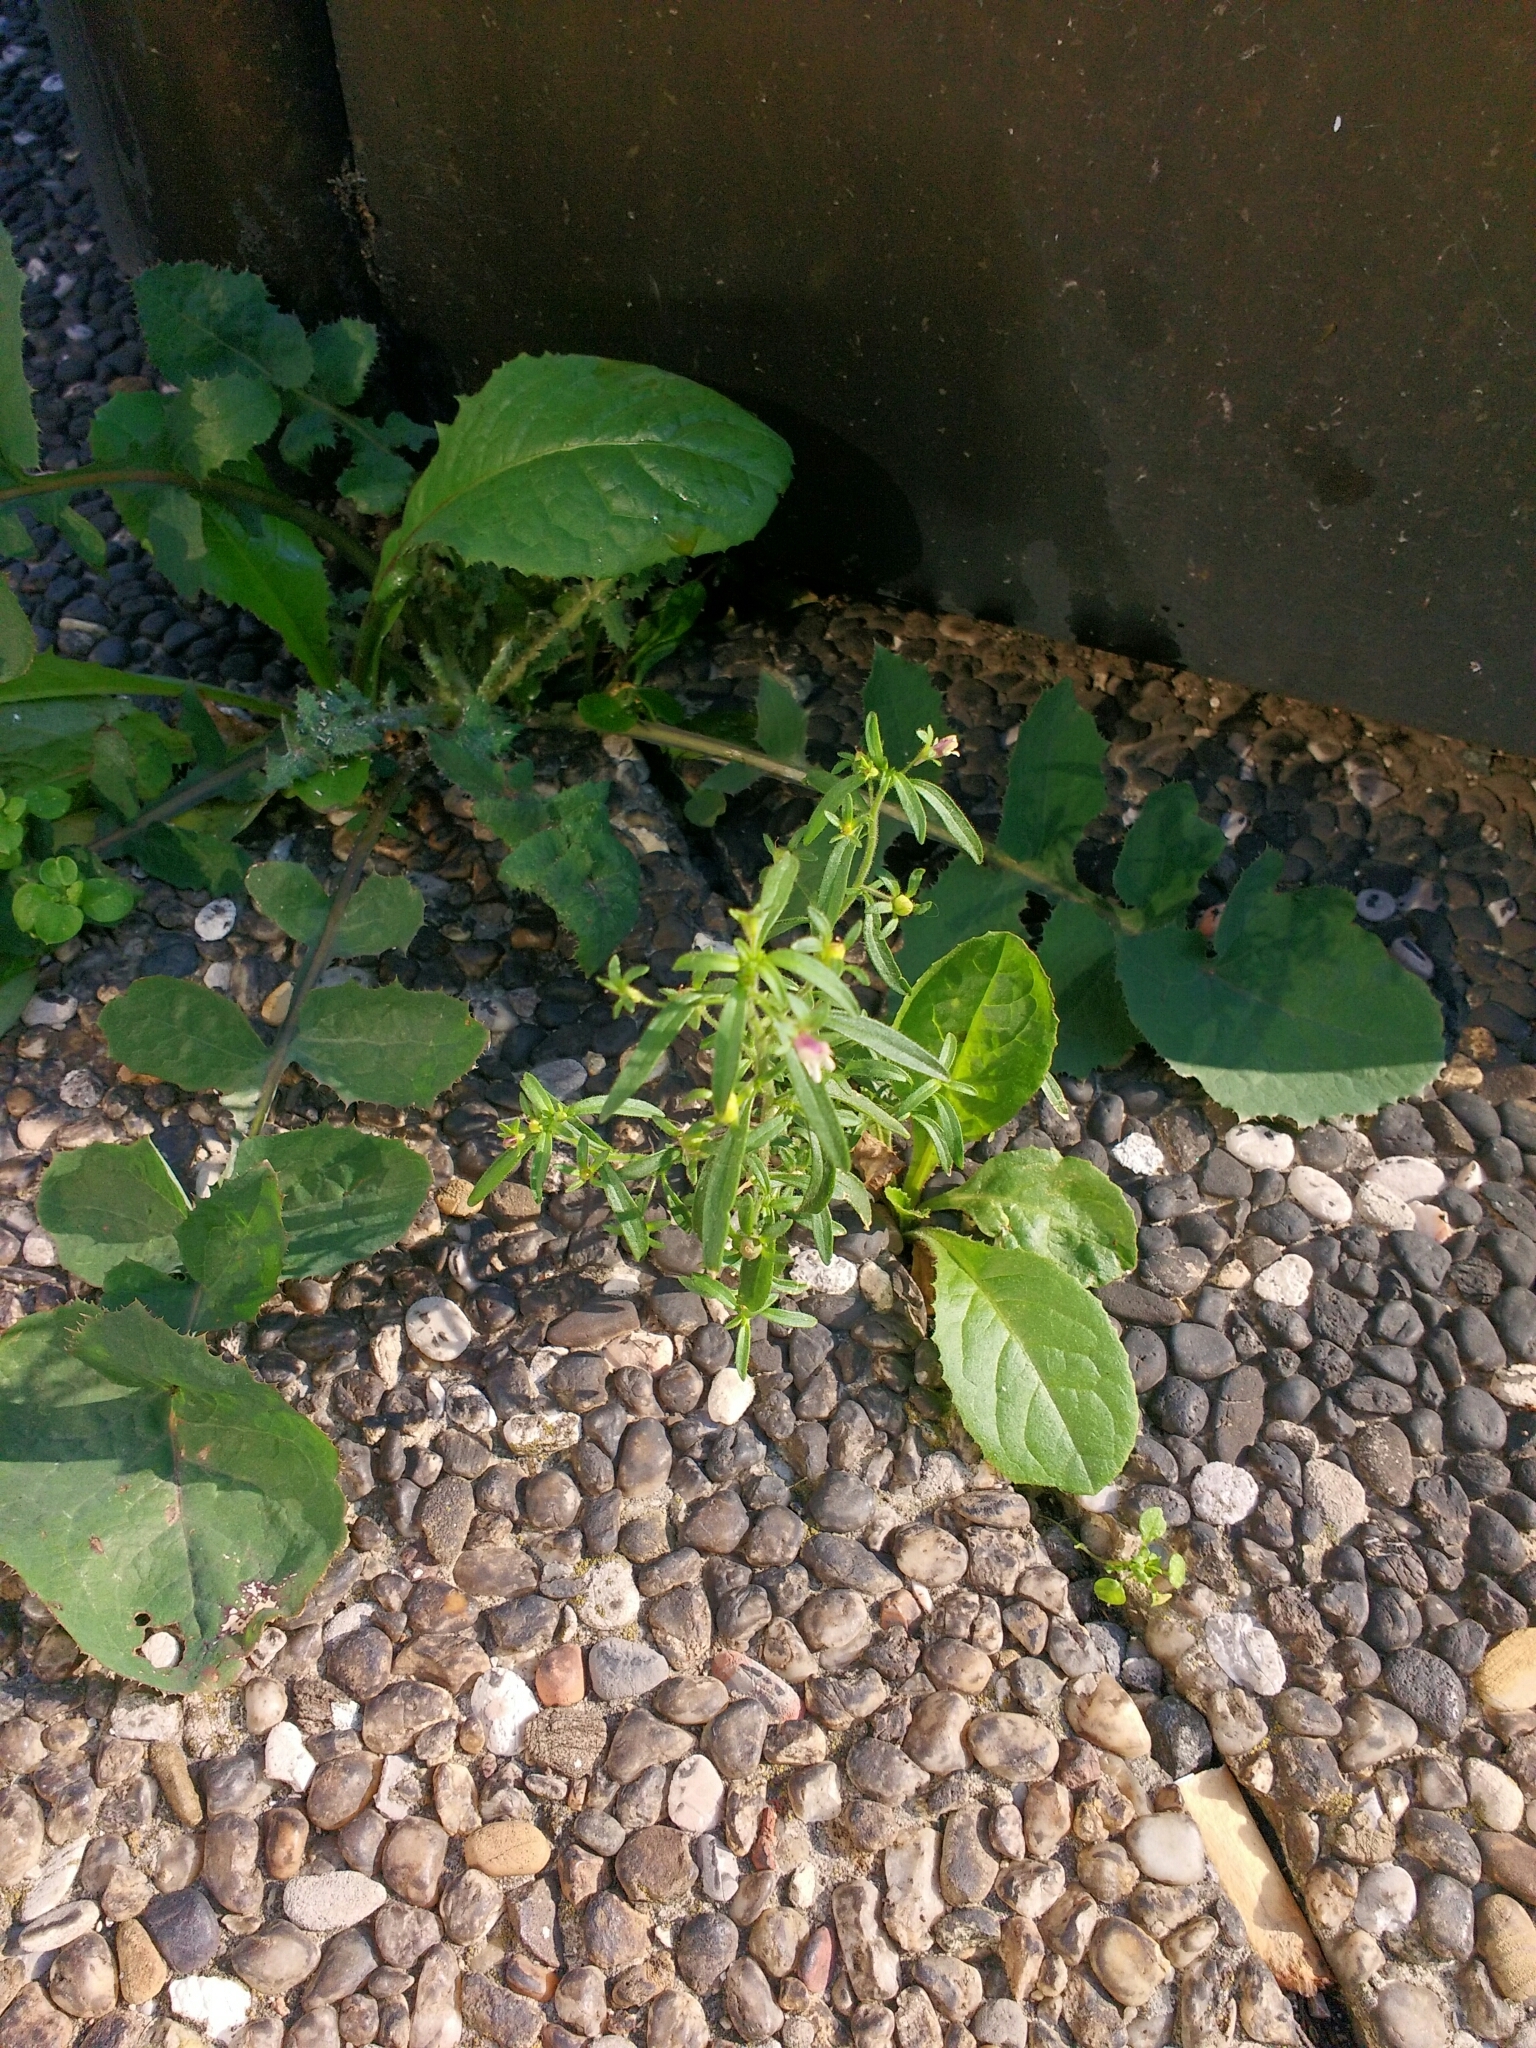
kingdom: Plantae
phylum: Tracheophyta
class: Magnoliopsida
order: Lamiales
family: Plantaginaceae
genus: Chaenorhinum
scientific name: Chaenorhinum minus
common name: Dwarf snapdragon
